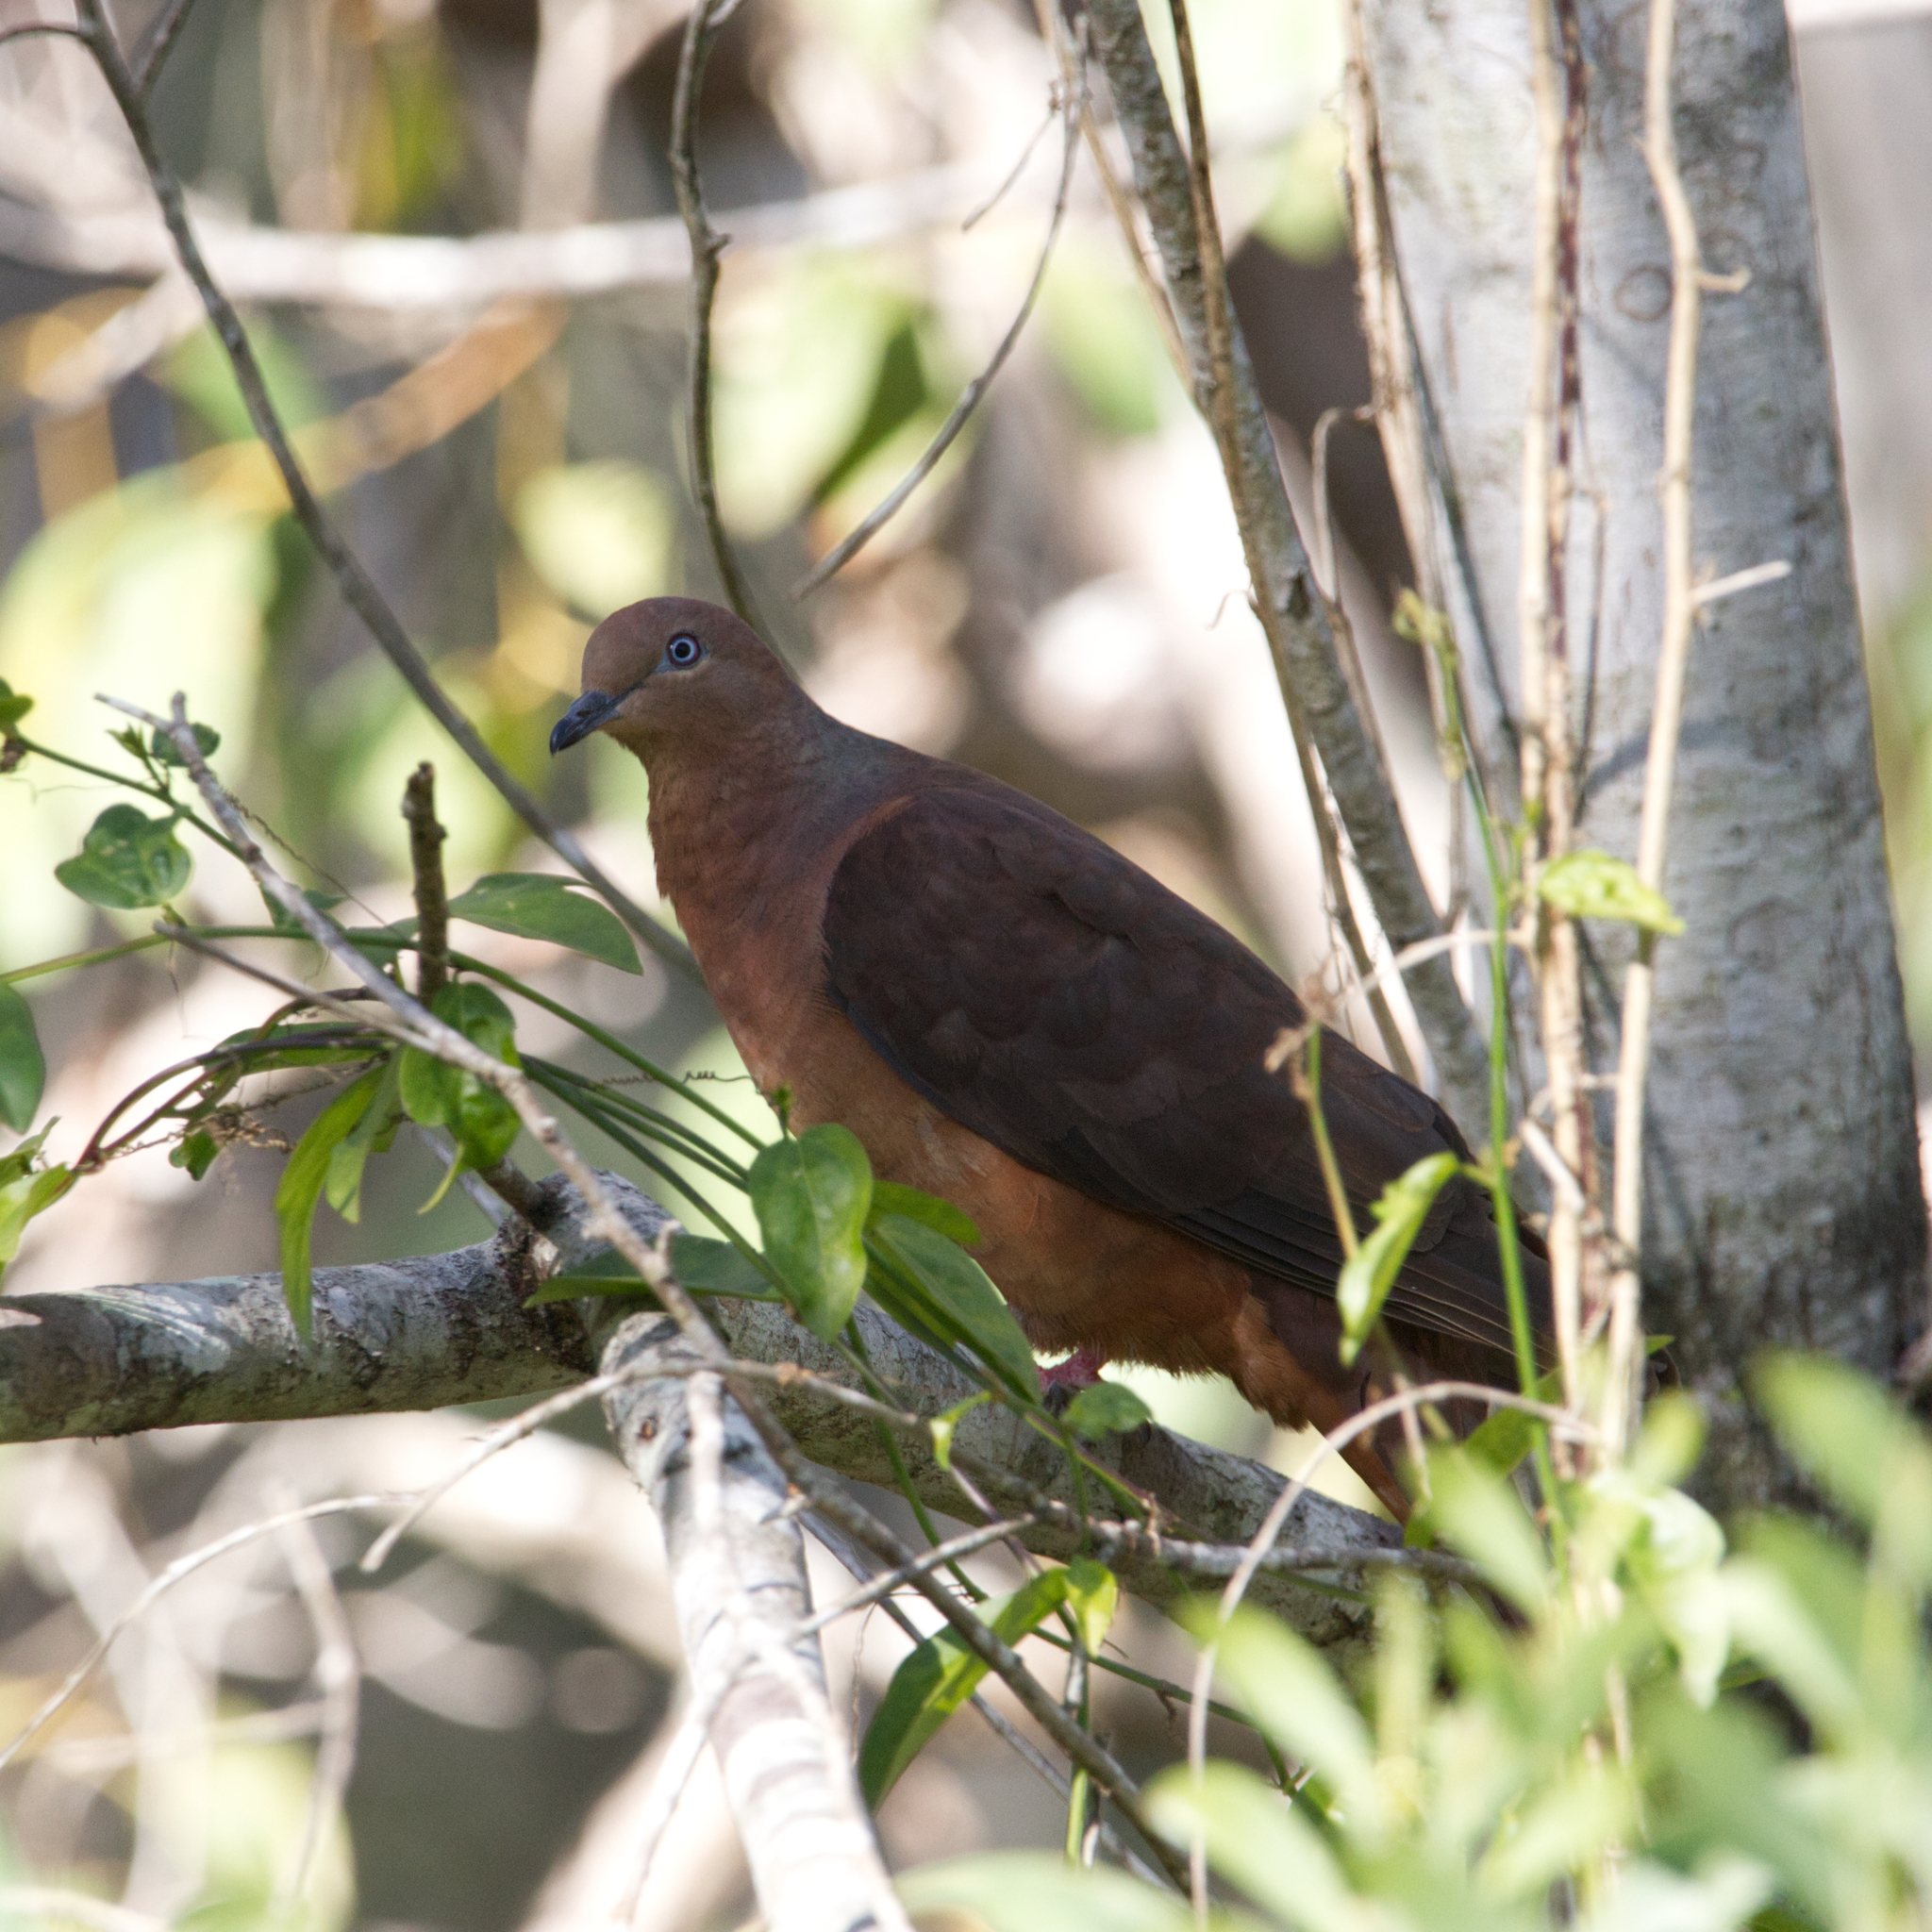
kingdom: Animalia
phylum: Chordata
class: Aves
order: Columbiformes
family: Columbidae
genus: Macropygia
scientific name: Macropygia phasianella
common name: Brown cuckoo-dove
